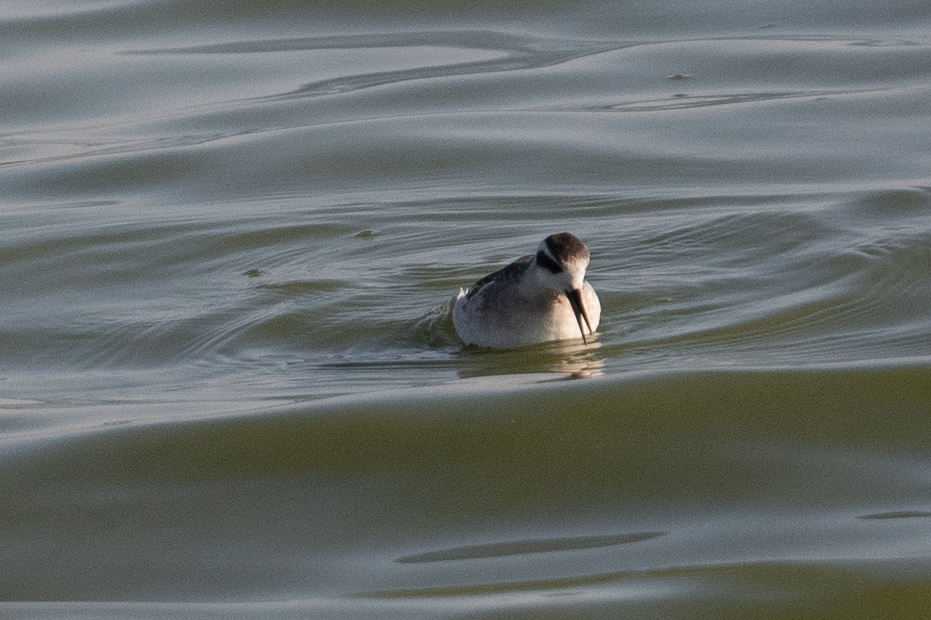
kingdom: Animalia
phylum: Chordata
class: Aves
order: Charadriiformes
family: Scolopacidae
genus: Phalaropus
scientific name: Phalaropus lobatus
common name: Red-necked phalarope
